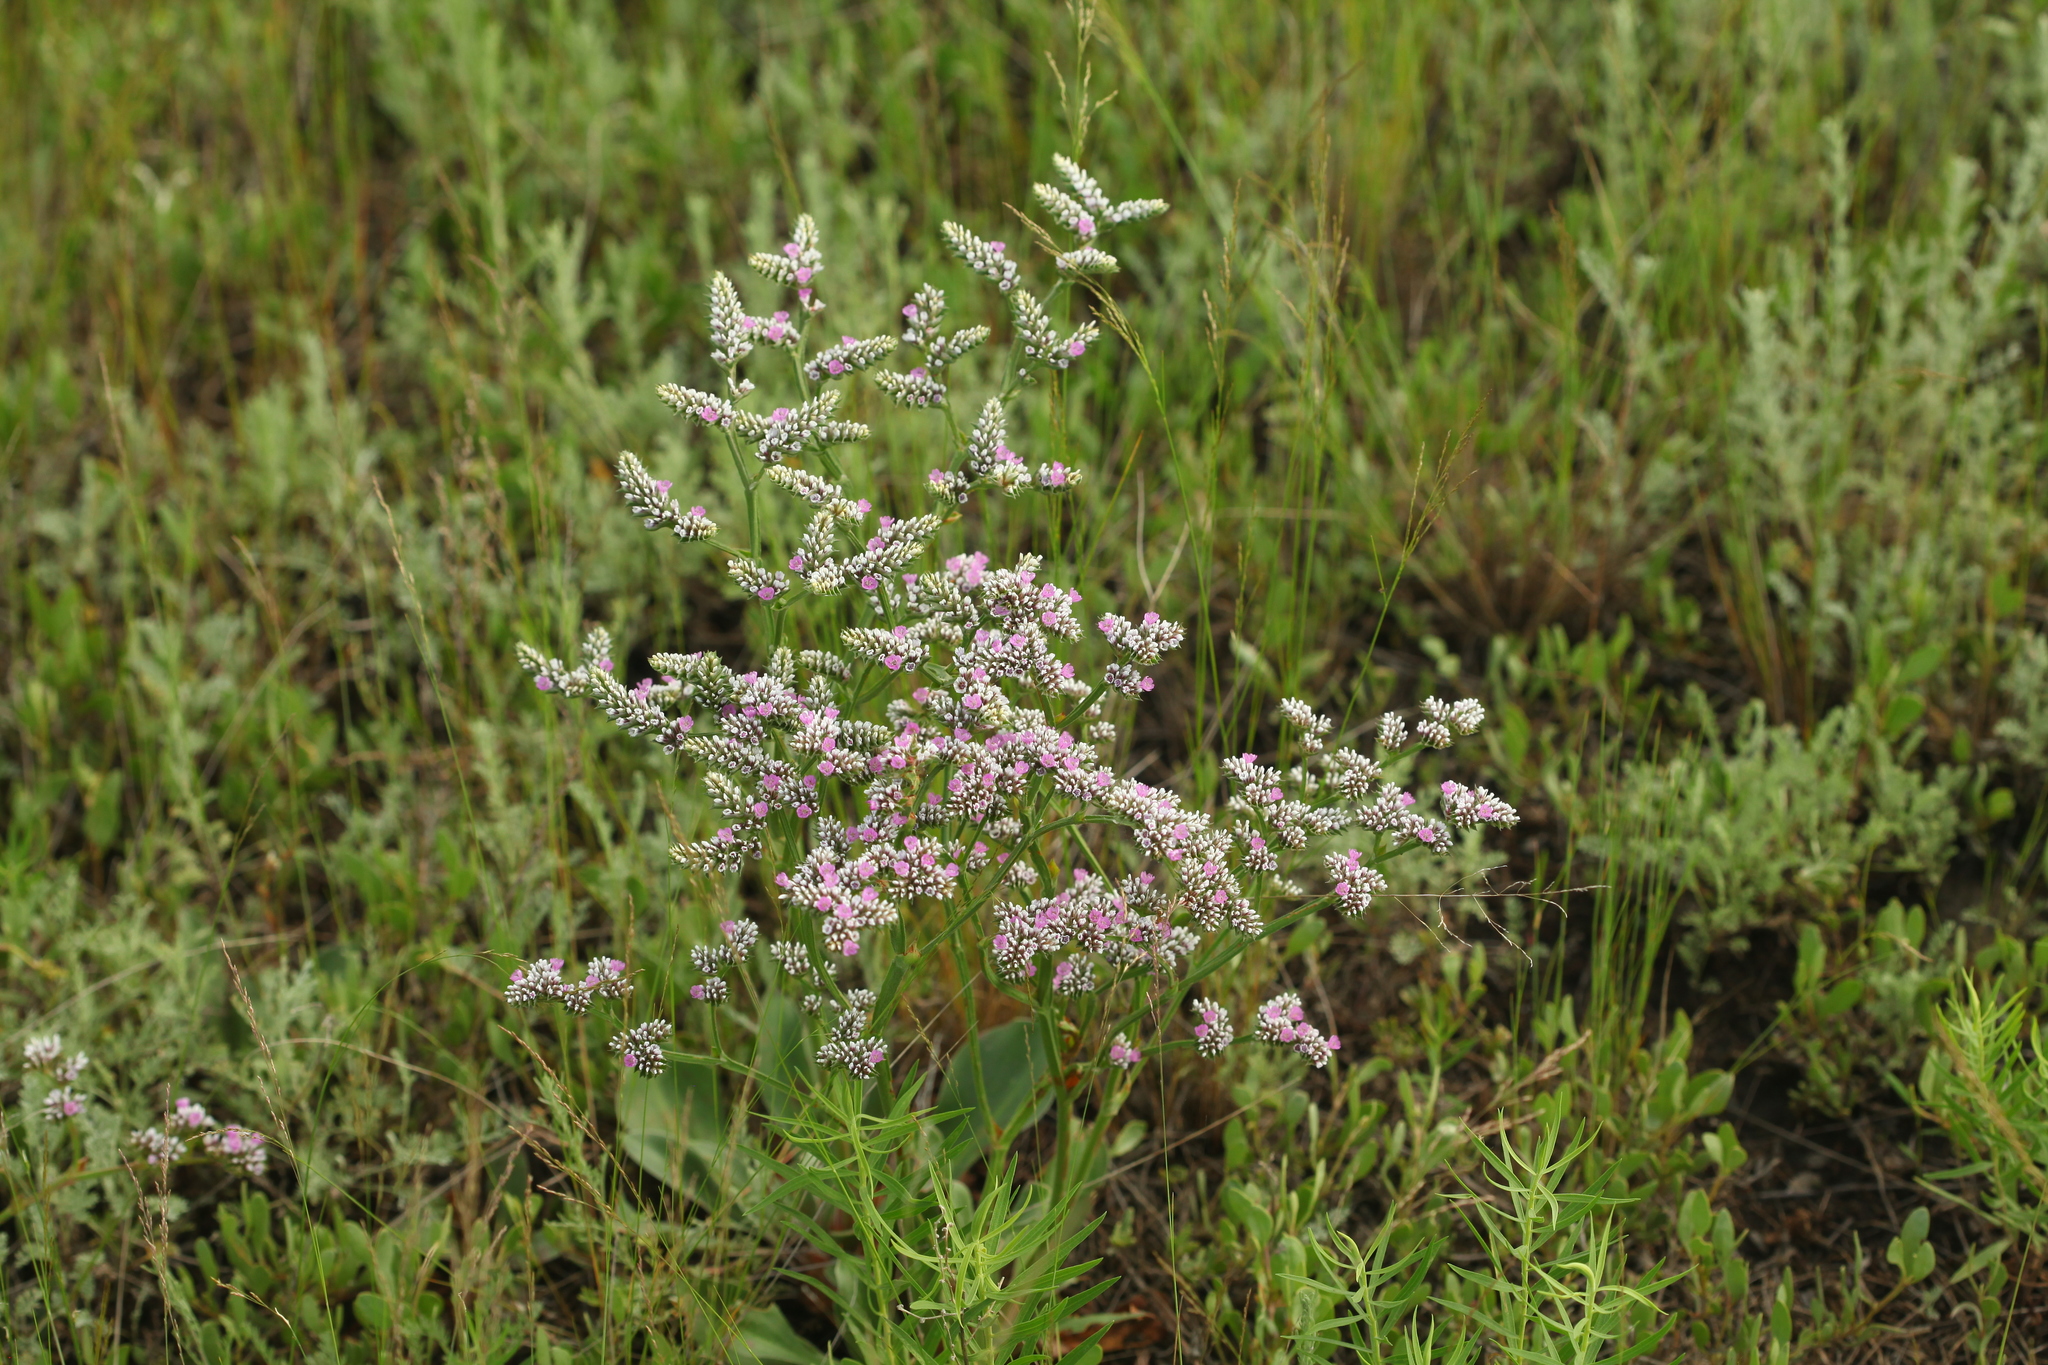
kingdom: Plantae
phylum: Tracheophyta
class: Magnoliopsida
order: Caryophyllales
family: Plumbaginaceae
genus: Goniolimon
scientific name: Goniolimon speciosum
